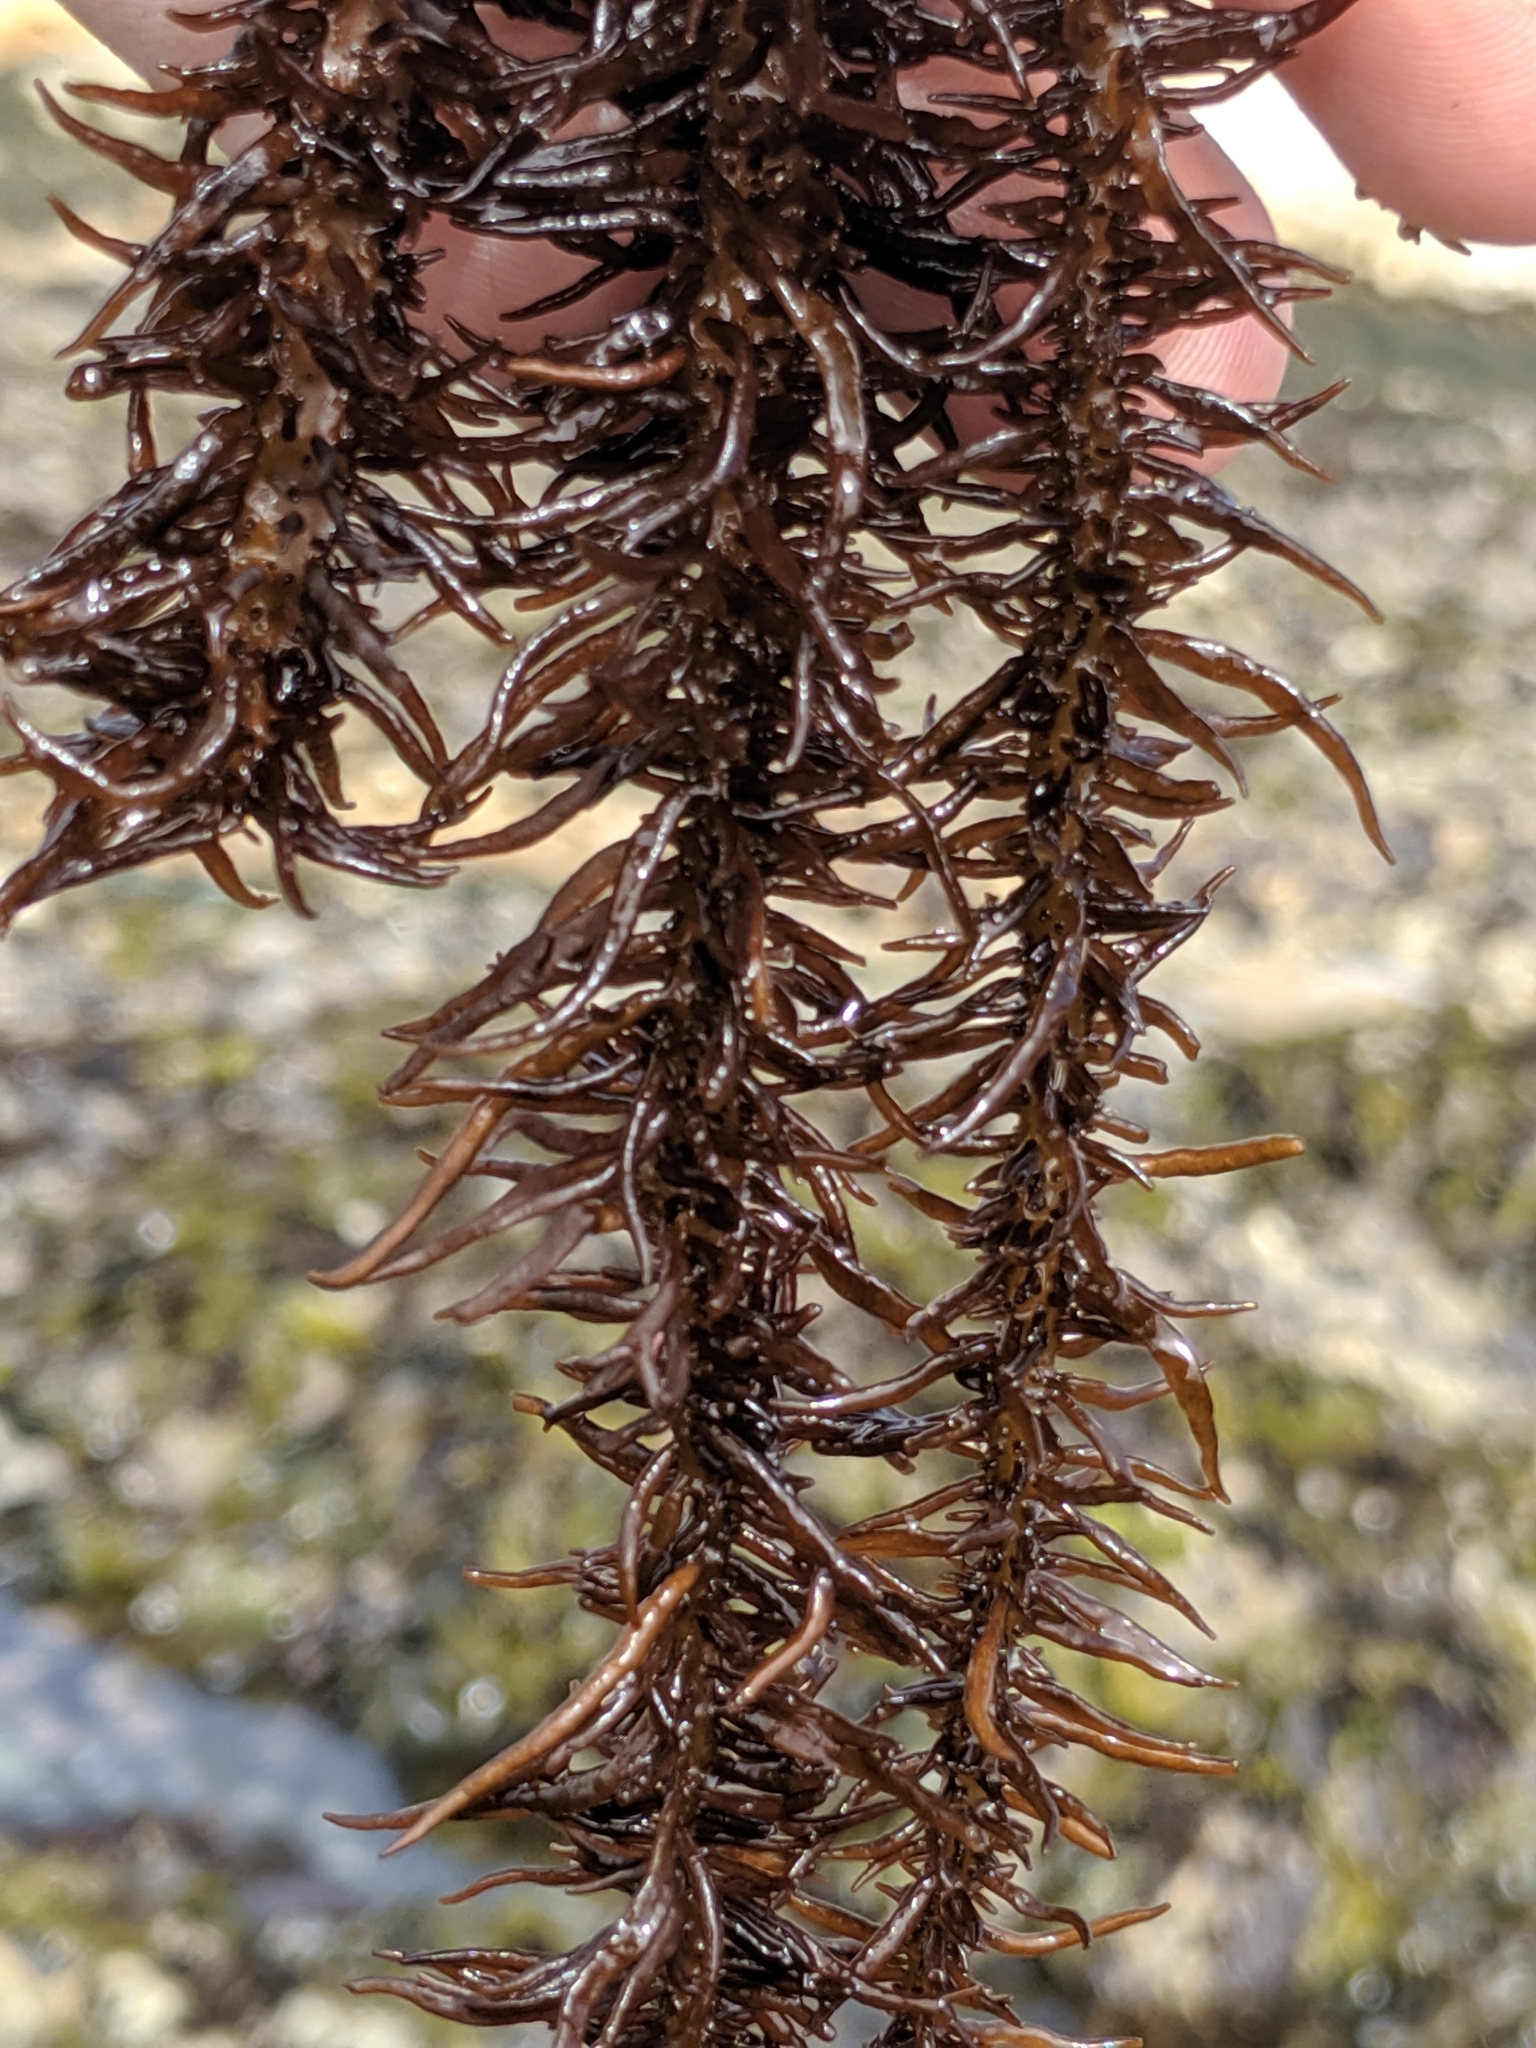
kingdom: Plantae
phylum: Rhodophyta
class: Florideophyceae
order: Nemaliales
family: Liagoraceae
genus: Cumagloia
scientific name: Cumagloia andersonii
